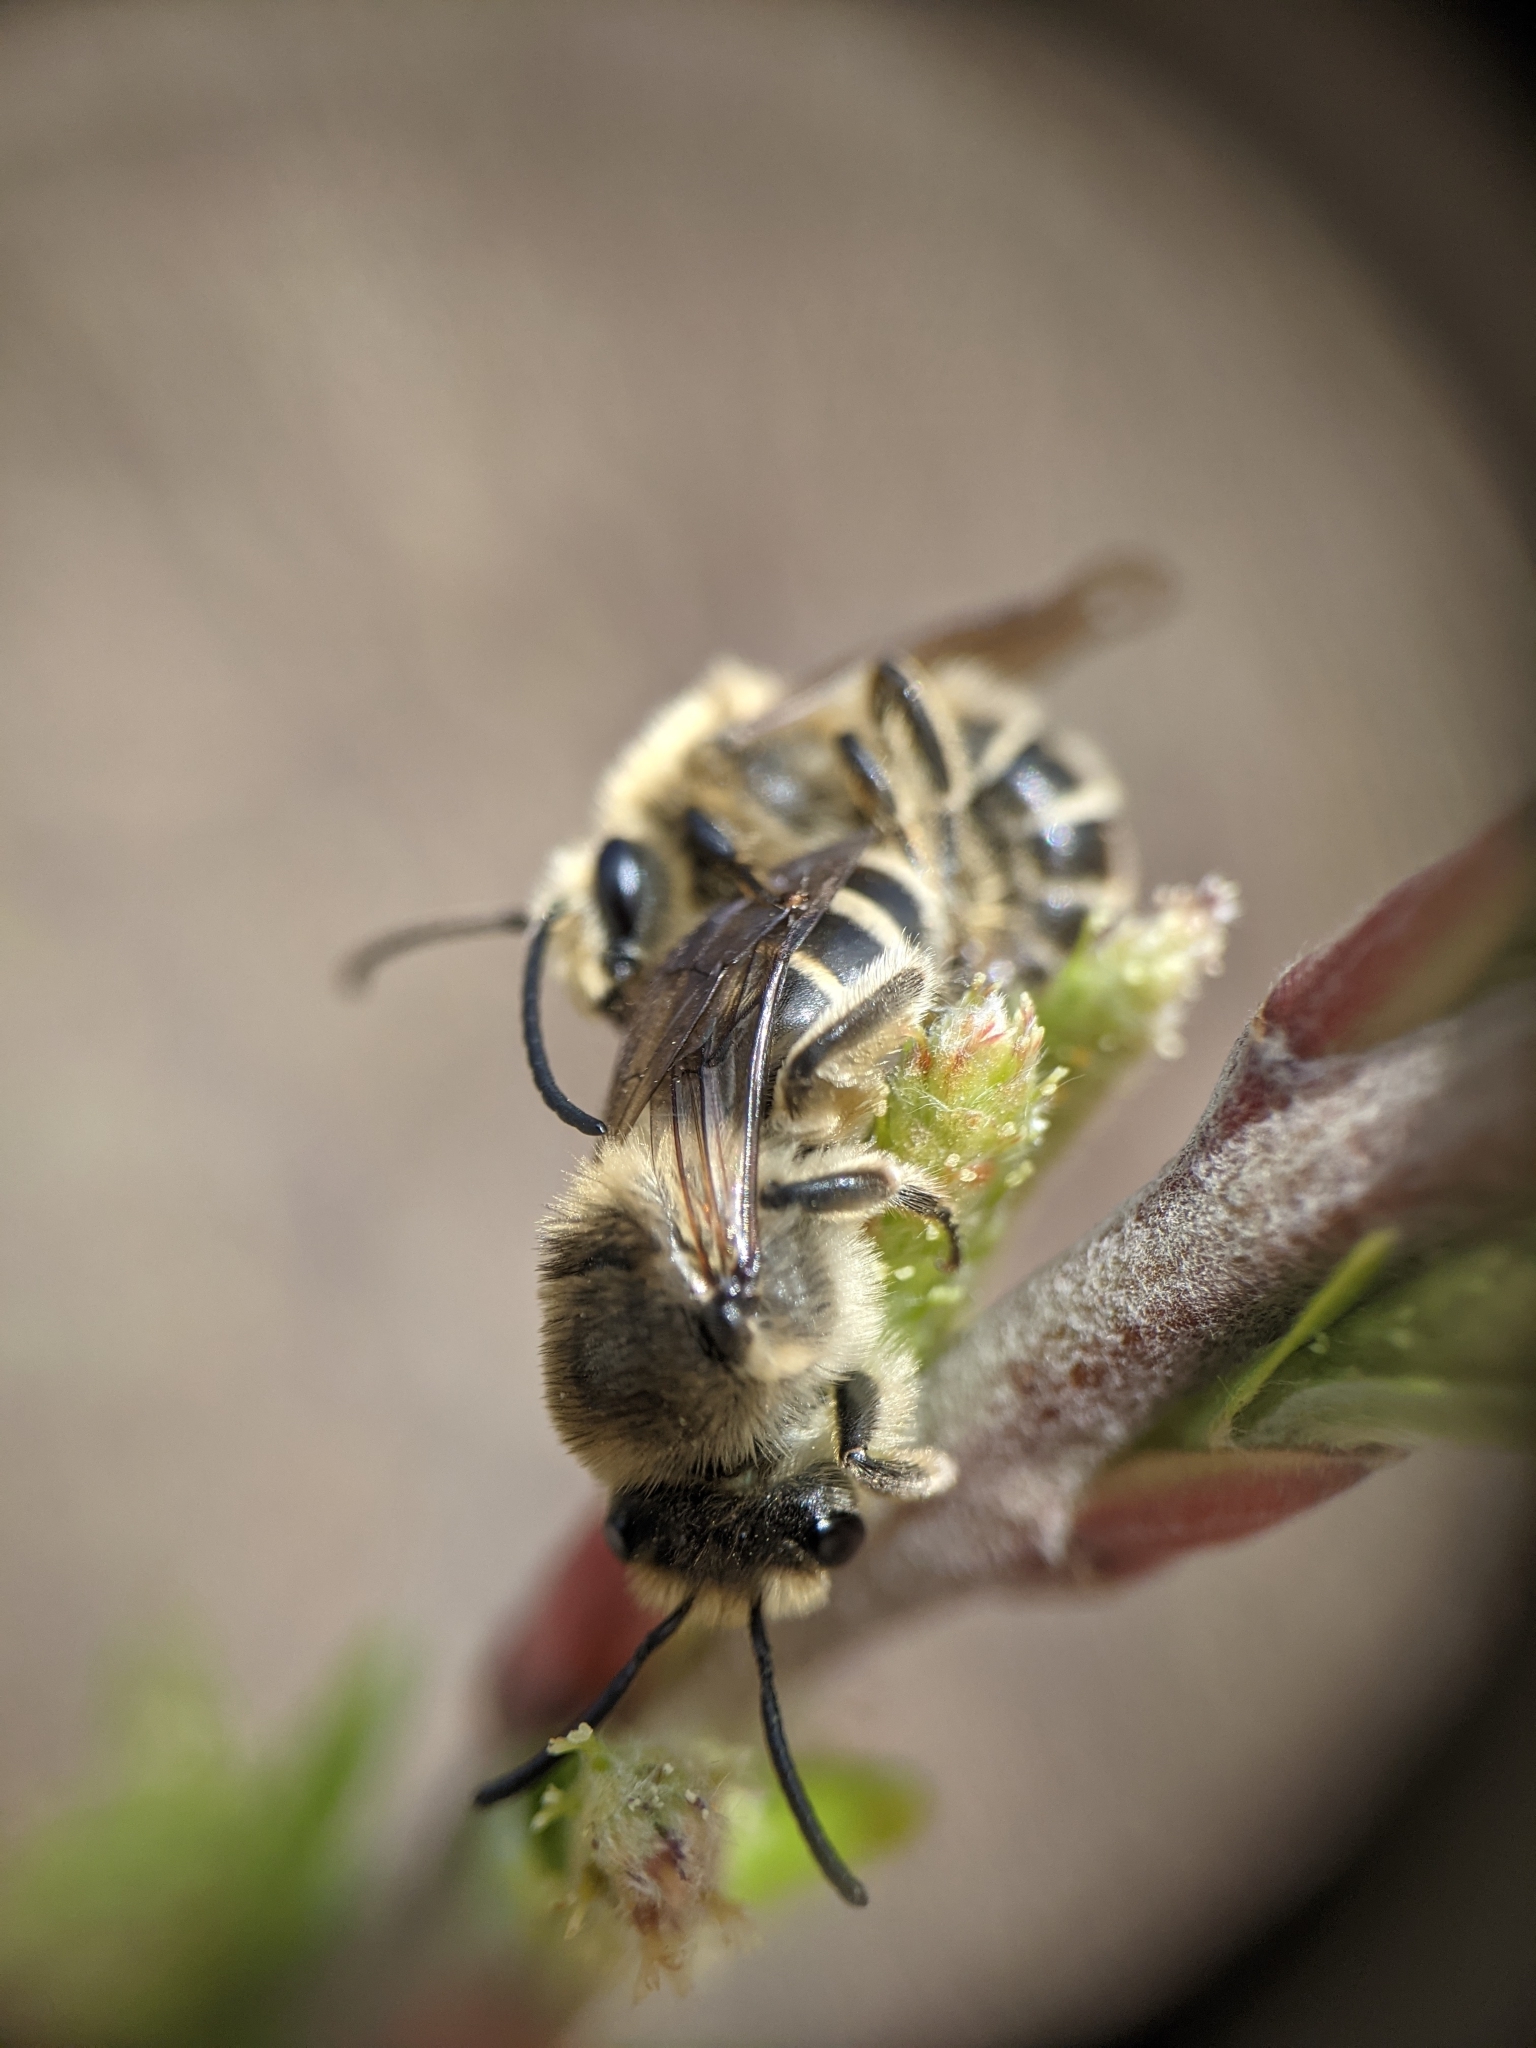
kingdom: Animalia
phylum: Arthropoda
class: Insecta
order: Hymenoptera
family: Colletidae
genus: Colletes
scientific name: Colletes inaequalis
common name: Unequal cellophane bee
